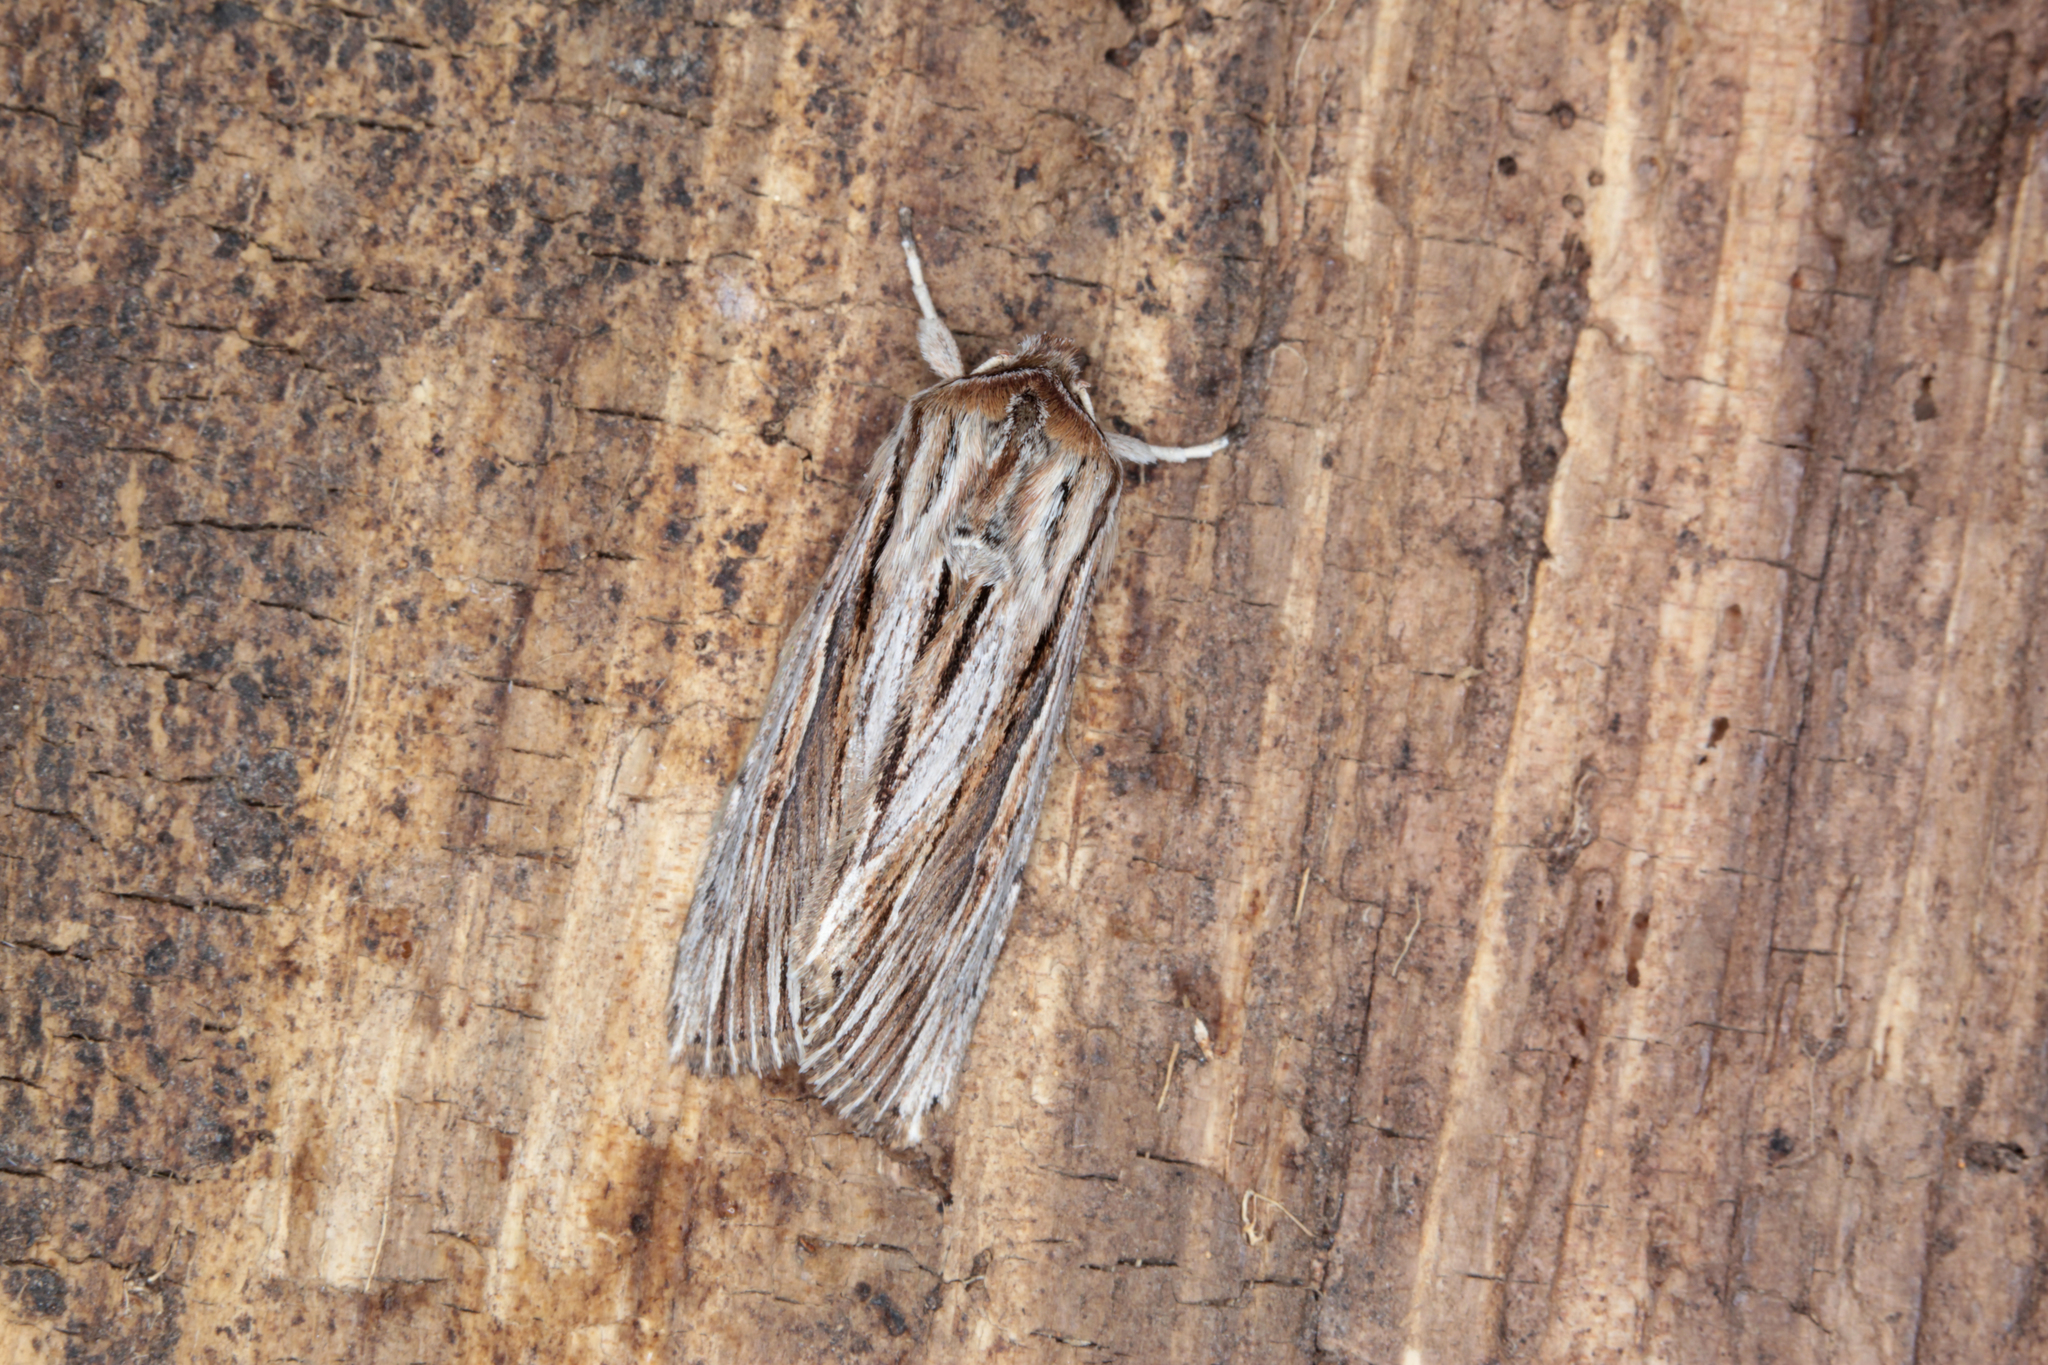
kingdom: Animalia
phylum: Arthropoda
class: Insecta
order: Lepidoptera
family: Noctuidae
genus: Persectania
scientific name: Persectania aversa
